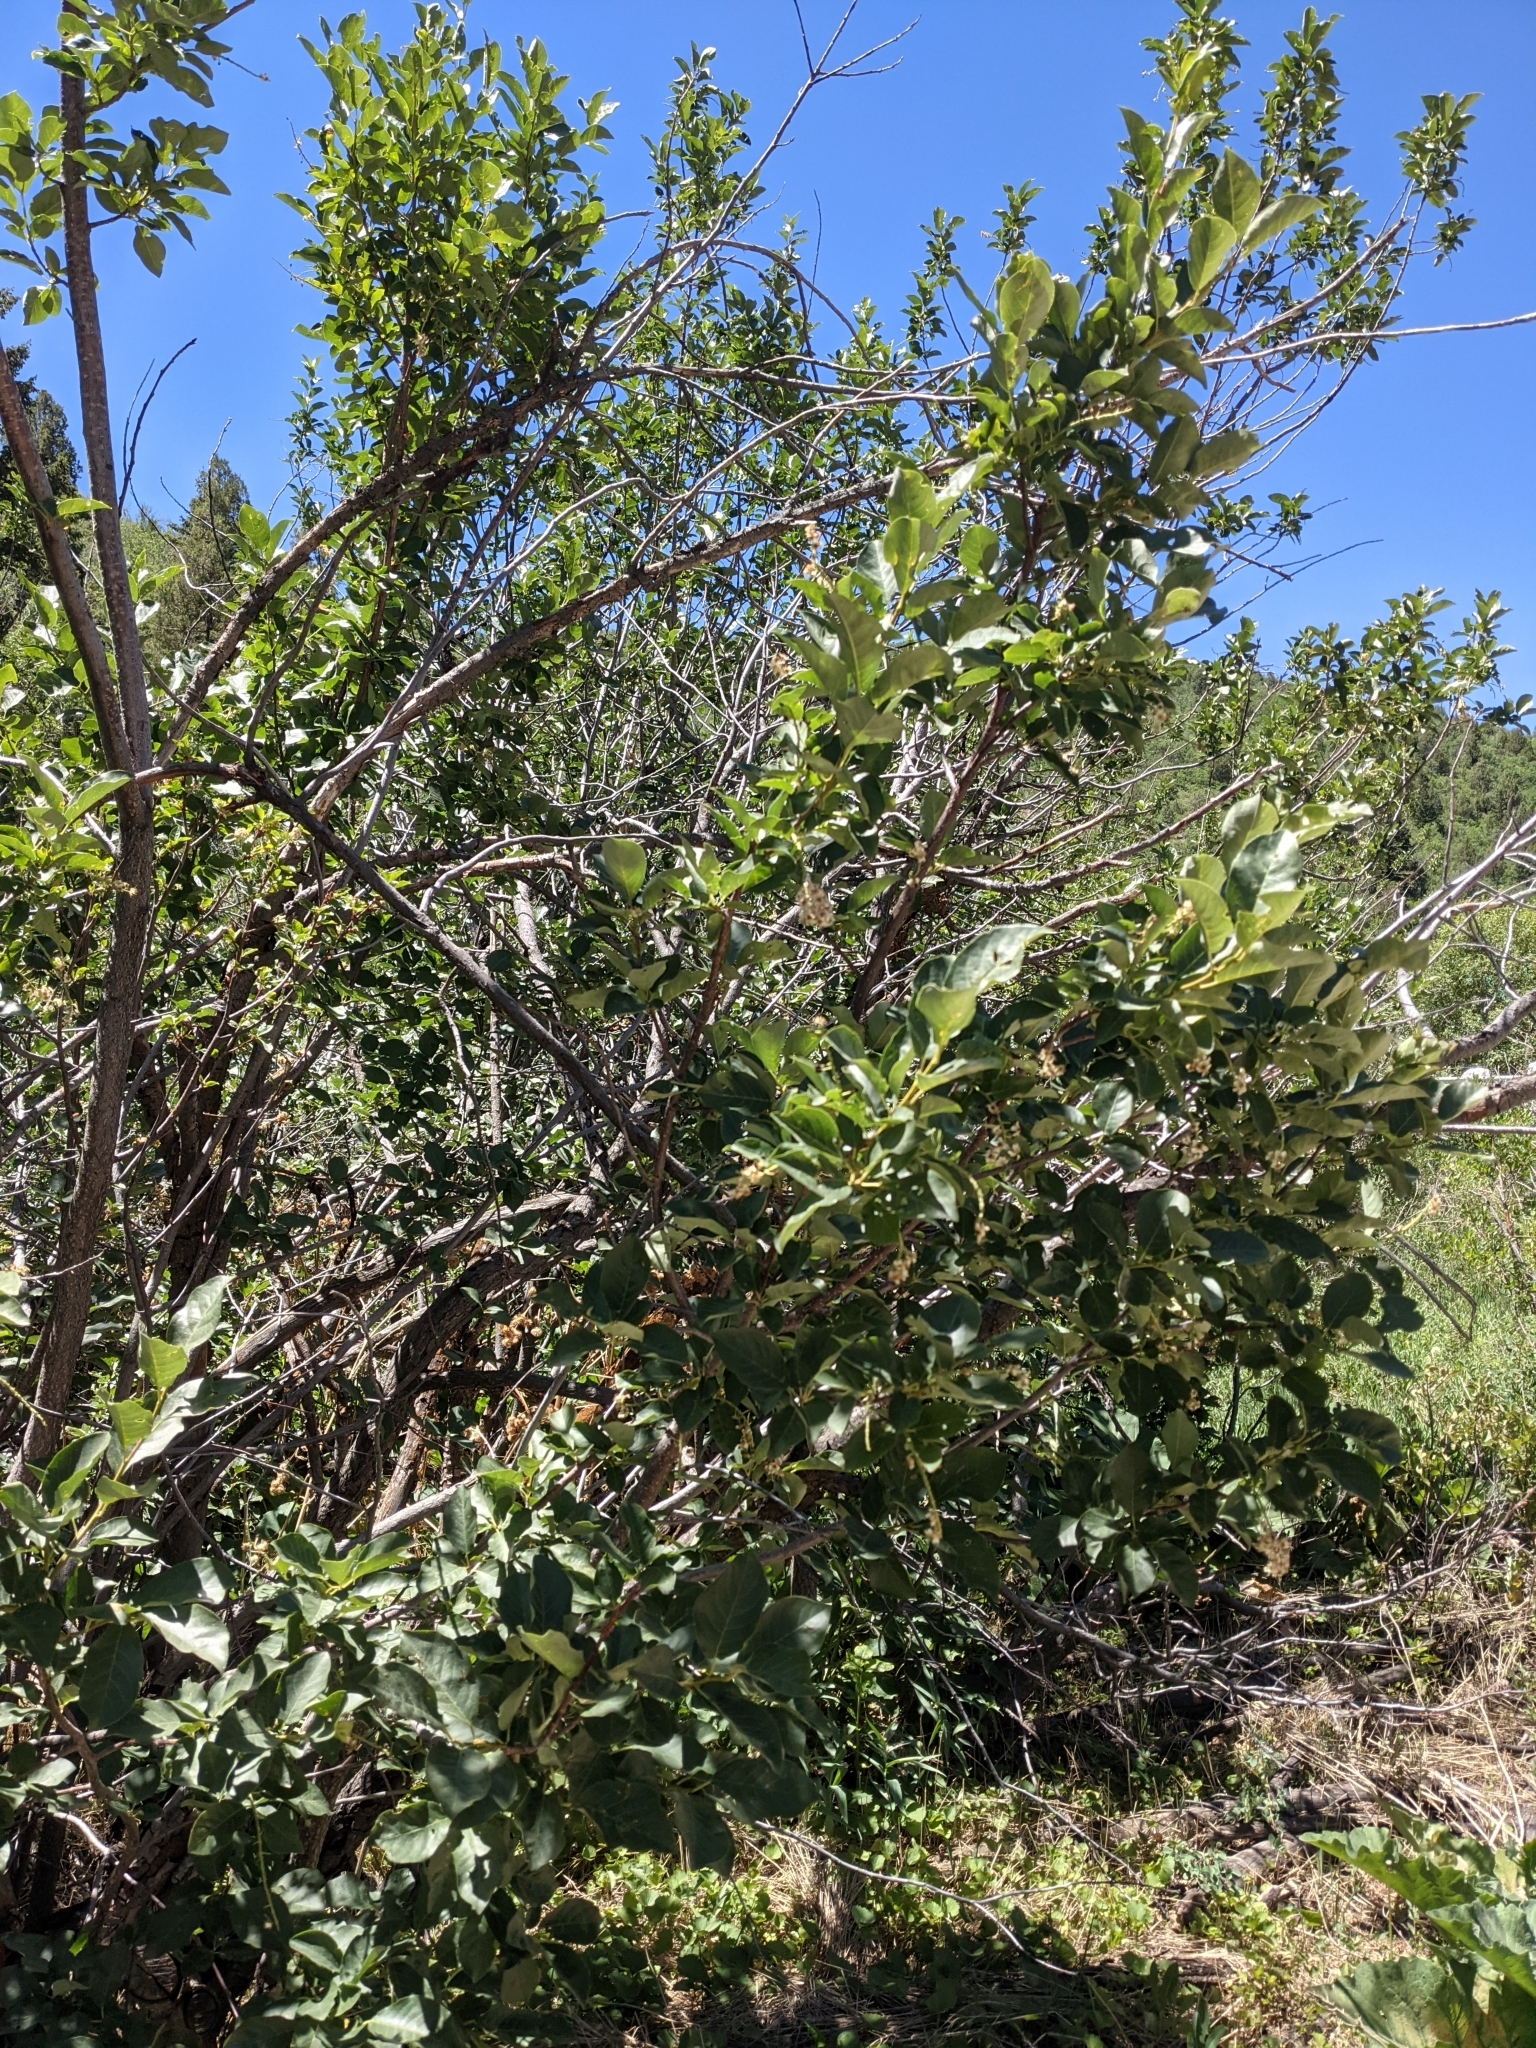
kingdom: Plantae
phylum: Tracheophyta
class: Magnoliopsida
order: Rosales
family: Rosaceae
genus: Prunus
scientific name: Prunus virginiana
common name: Chokecherry
